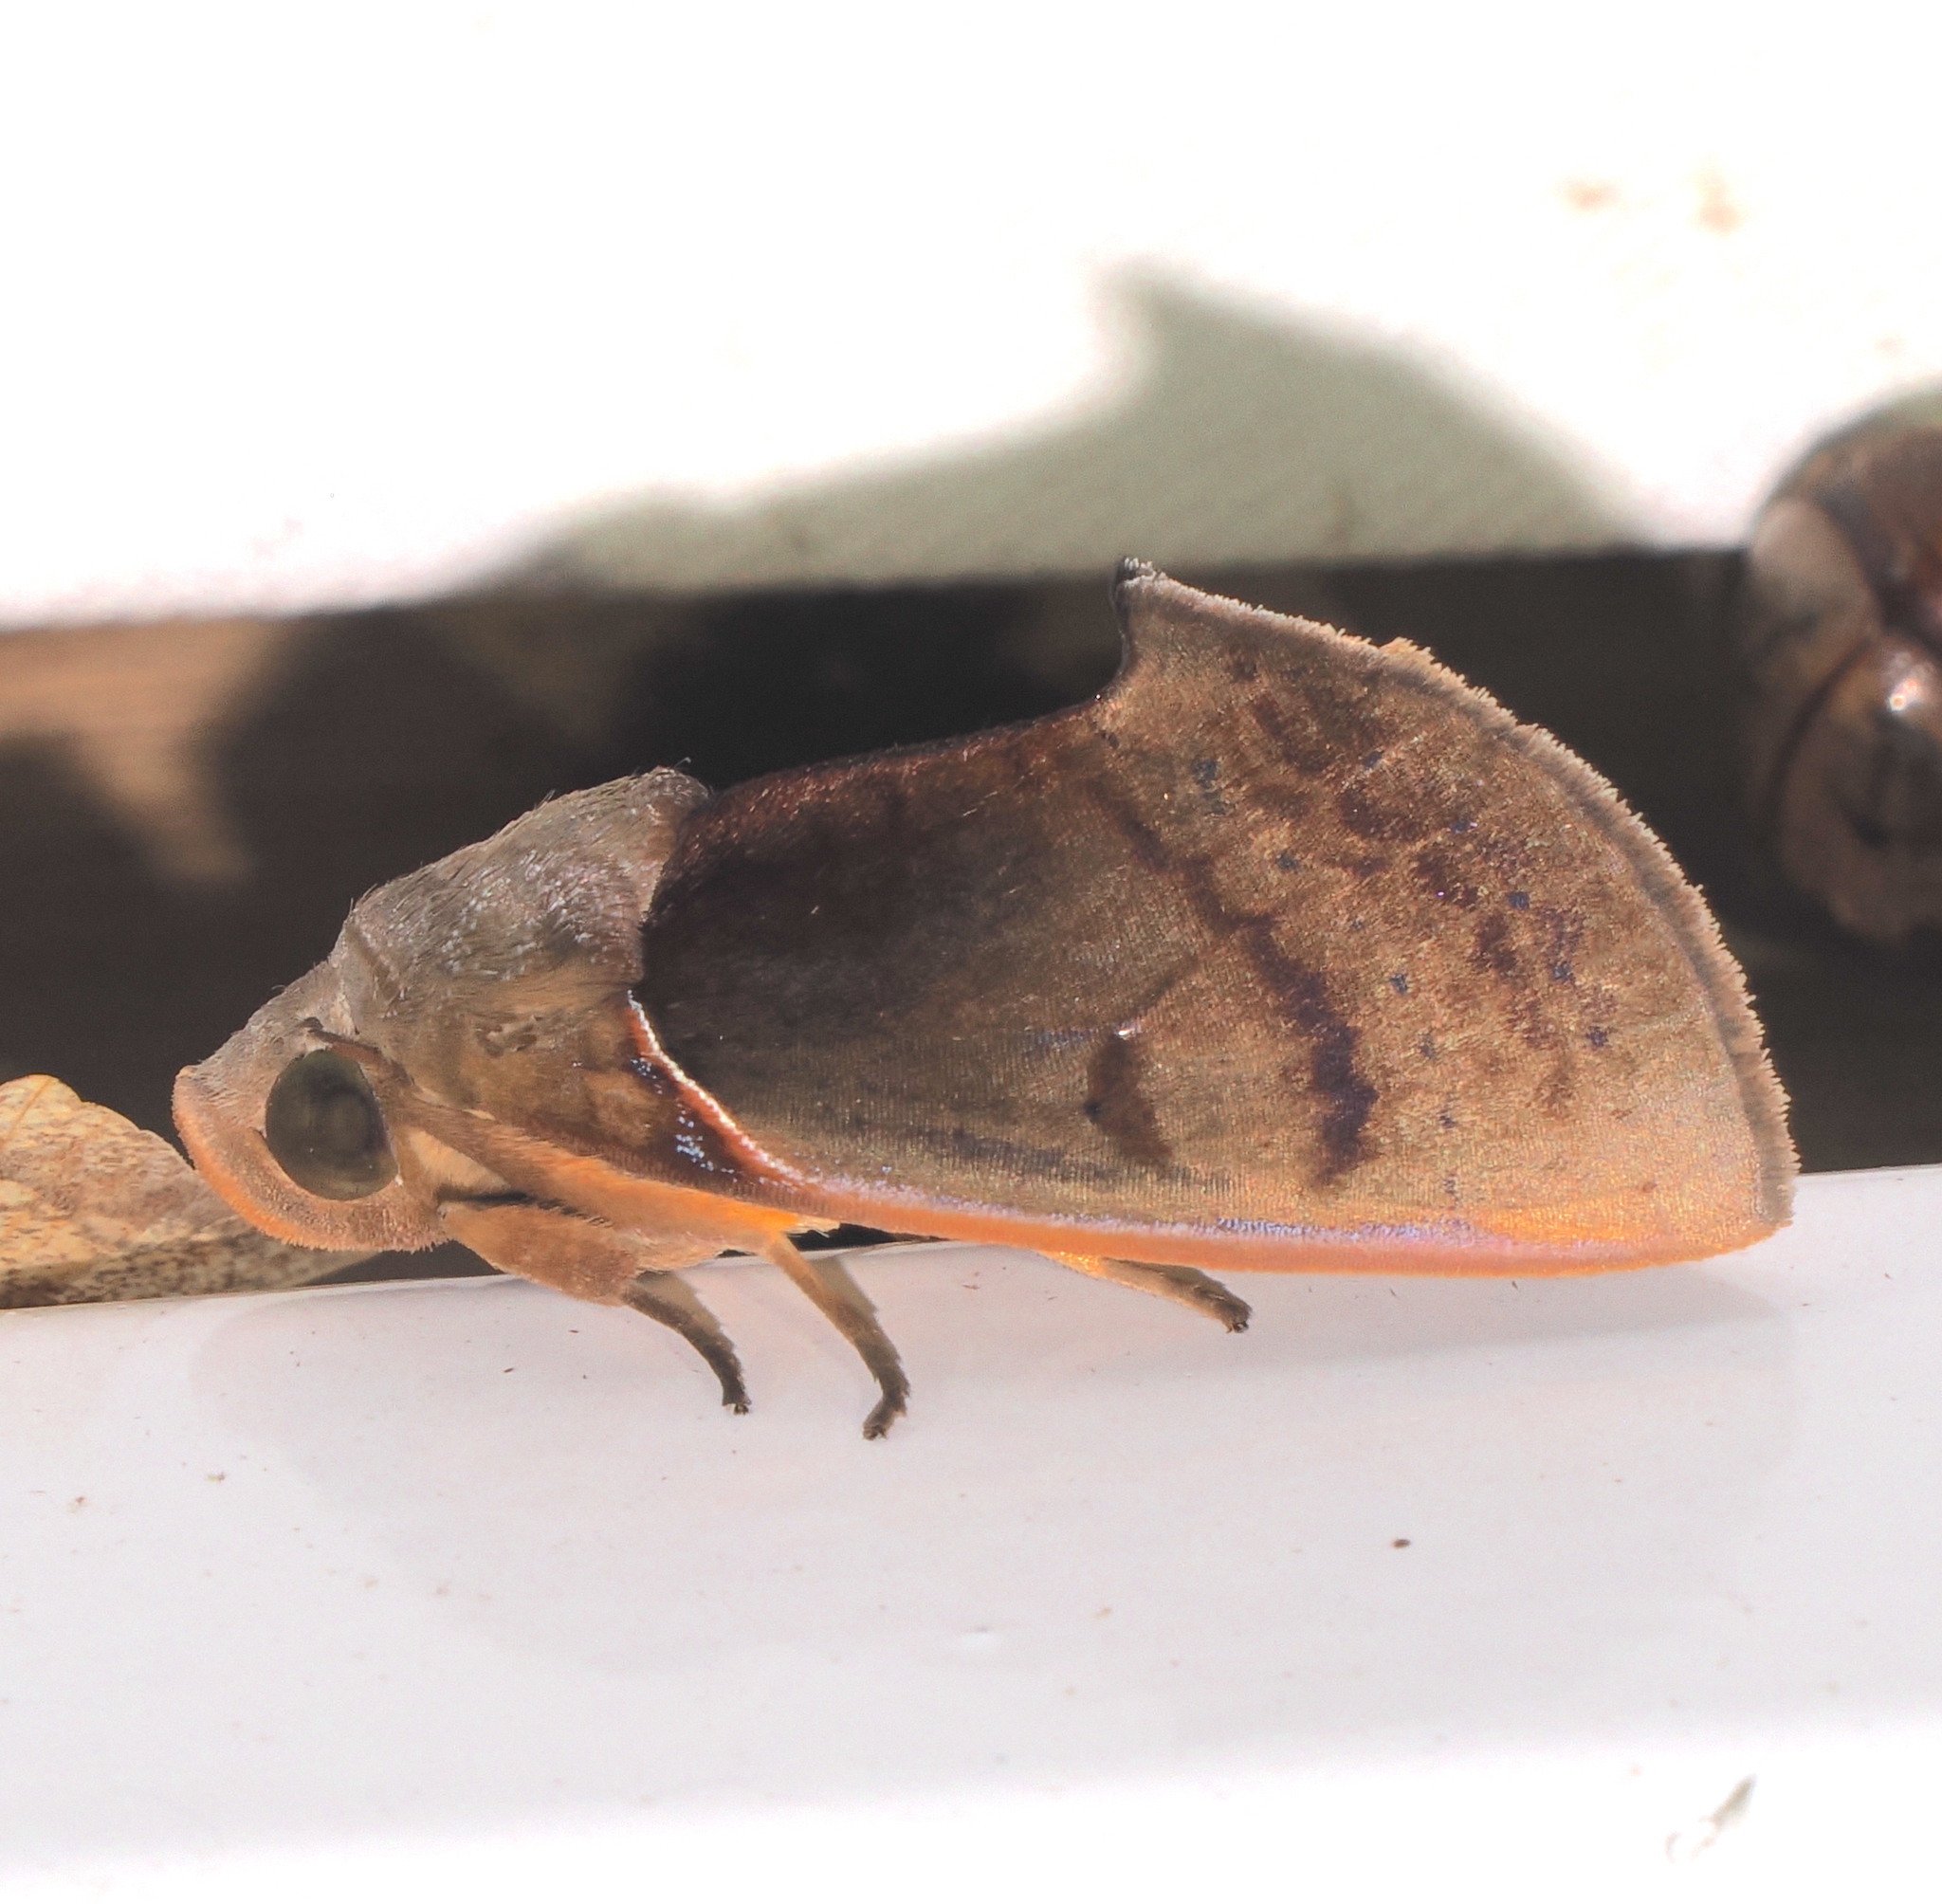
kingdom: Animalia
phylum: Arthropoda
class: Insecta
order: Lepidoptera
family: Erebidae
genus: Gonodonta
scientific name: Gonodonta sicheas
